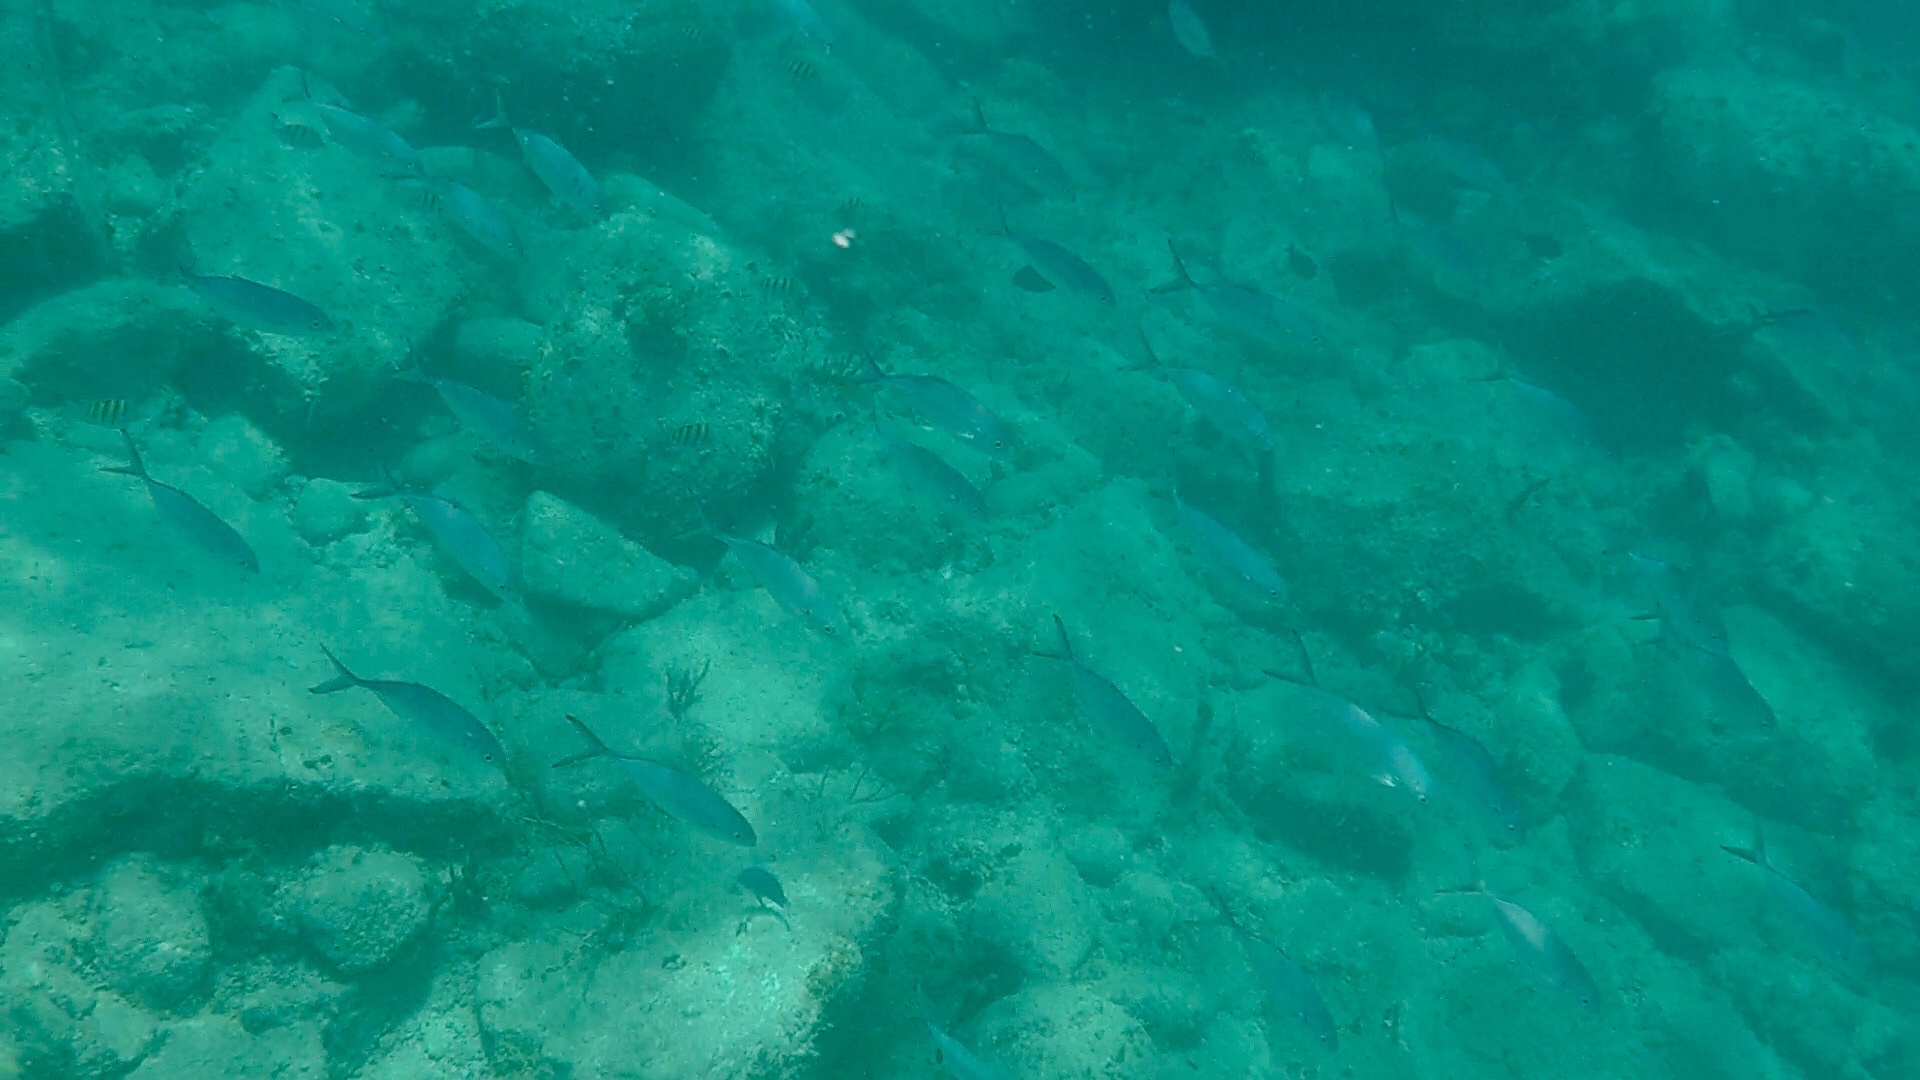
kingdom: Animalia
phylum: Chordata
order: Perciformes
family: Carangidae
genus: Caranx
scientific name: Caranx ruber
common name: Bar jack
